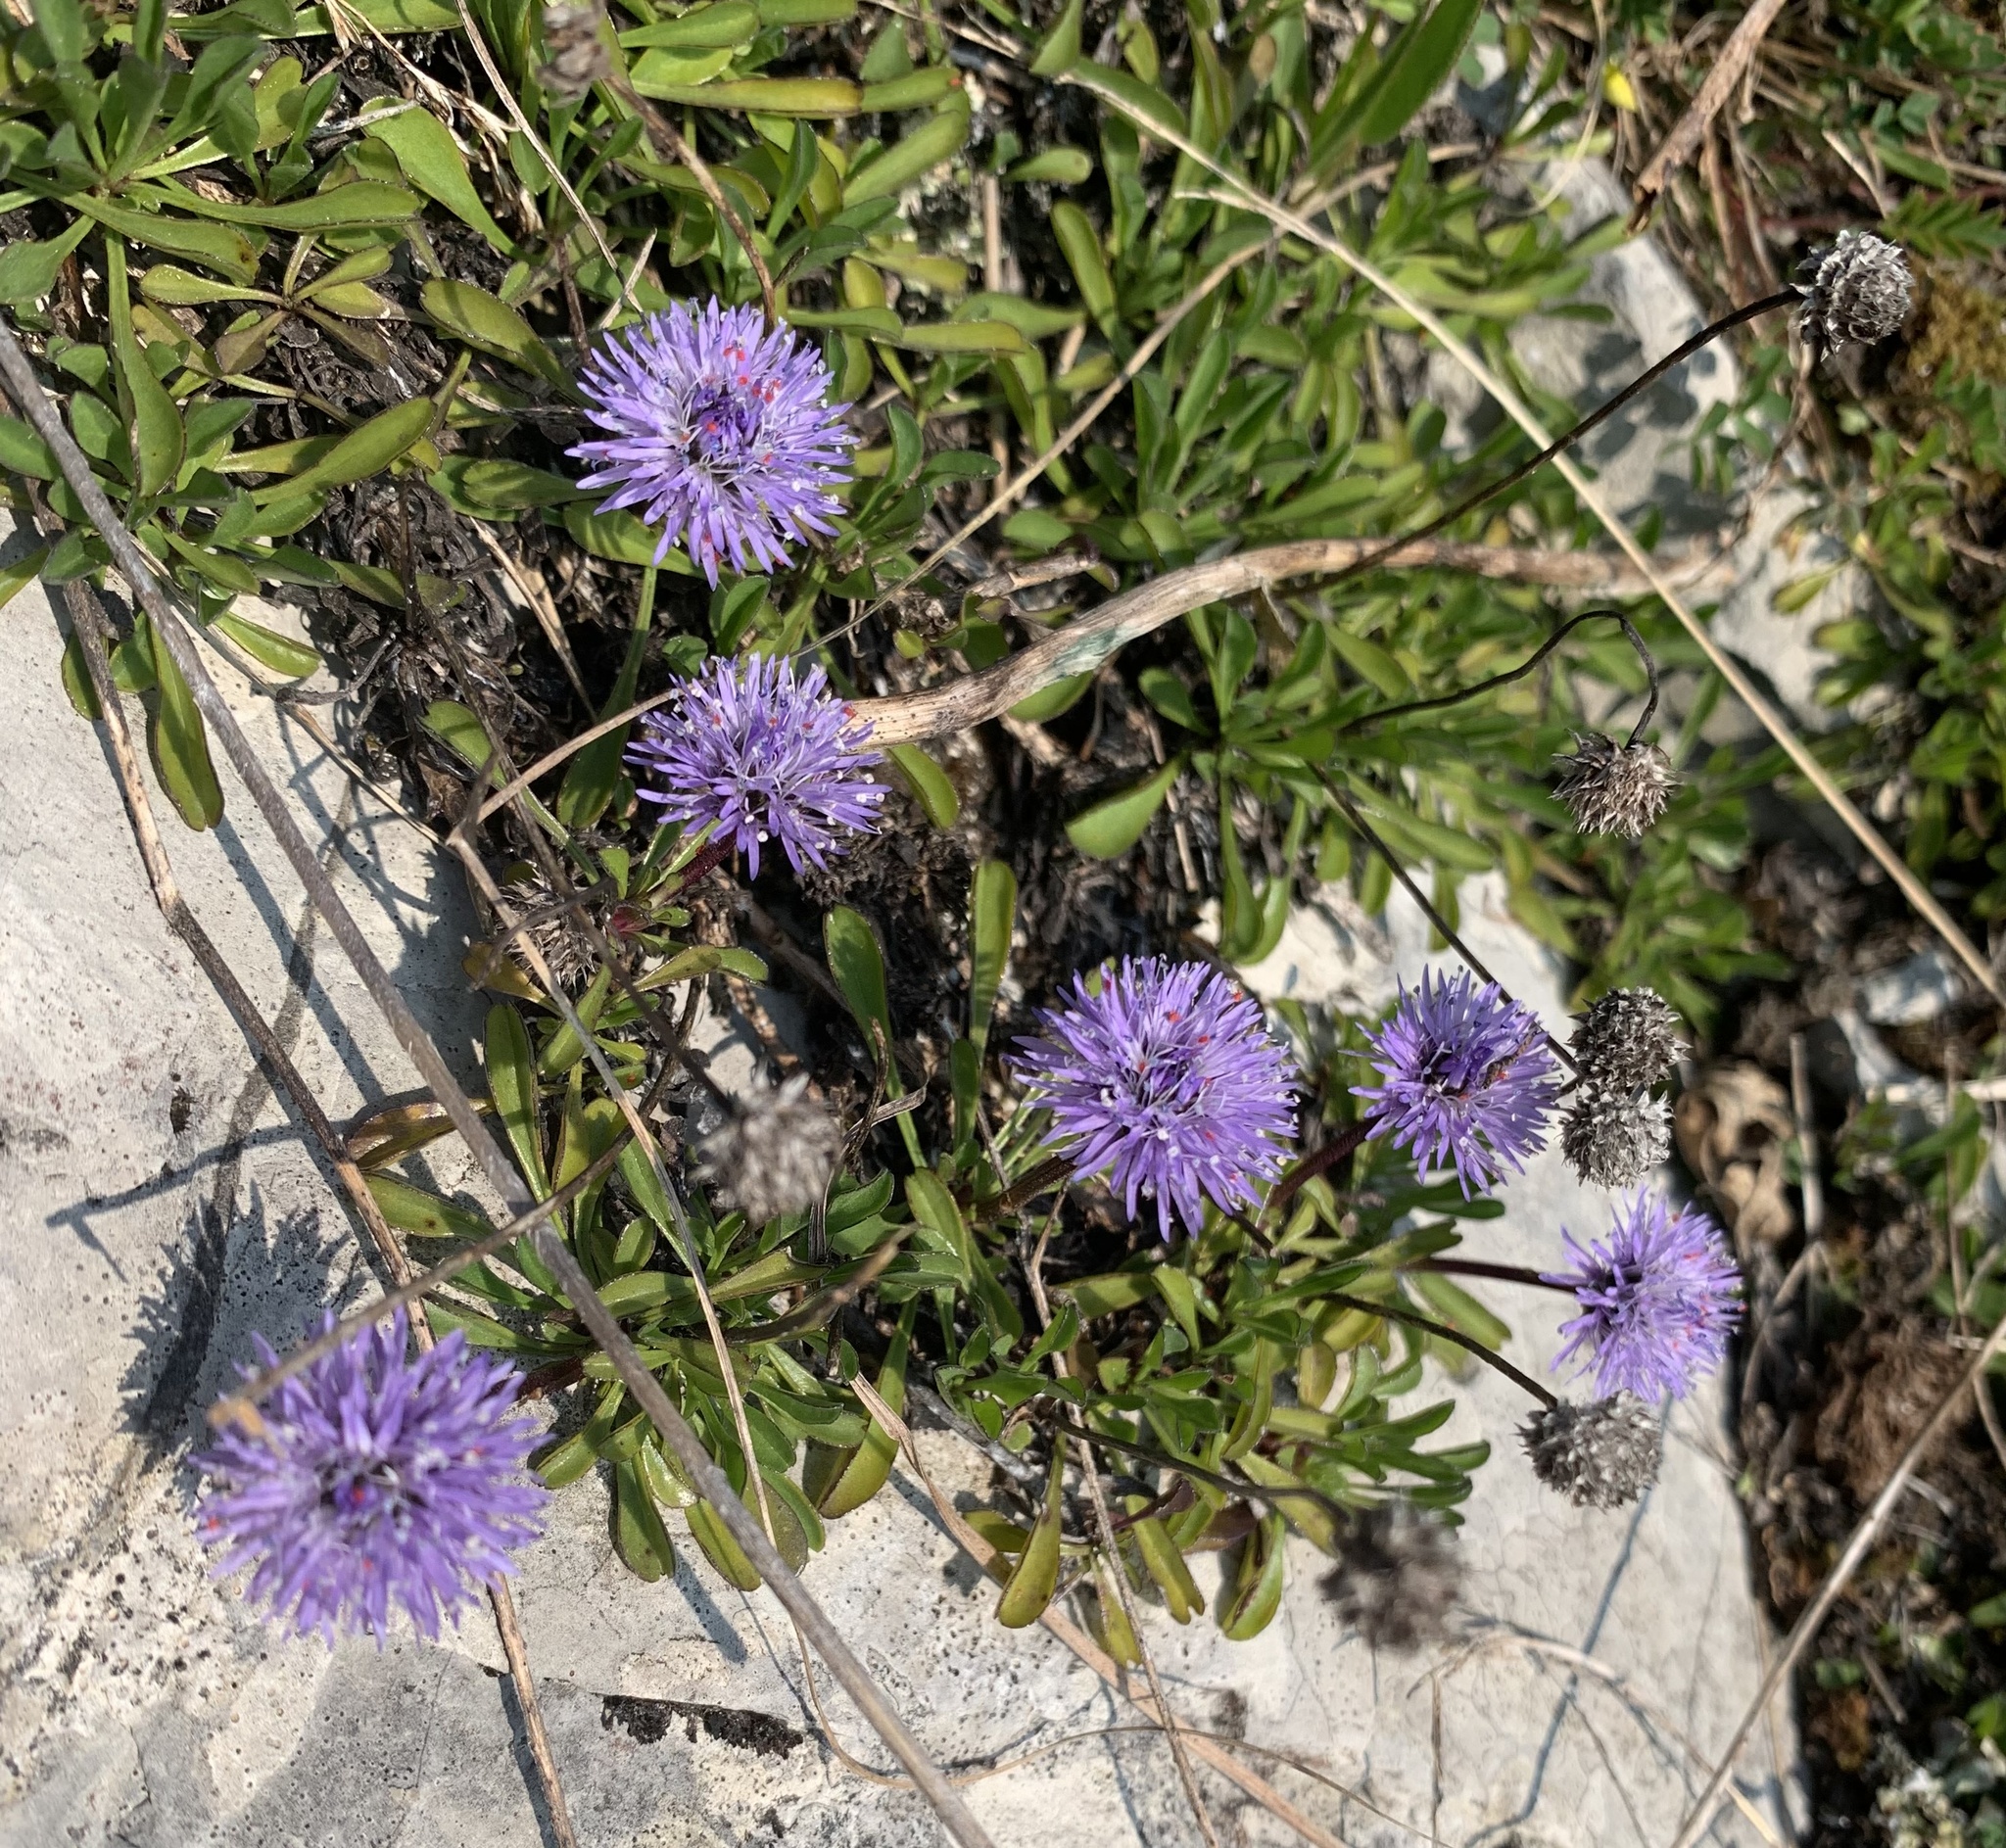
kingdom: Plantae
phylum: Tracheophyta
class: Magnoliopsida
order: Lamiales
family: Plantaginaceae
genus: Globularia
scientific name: Globularia cordifolia
